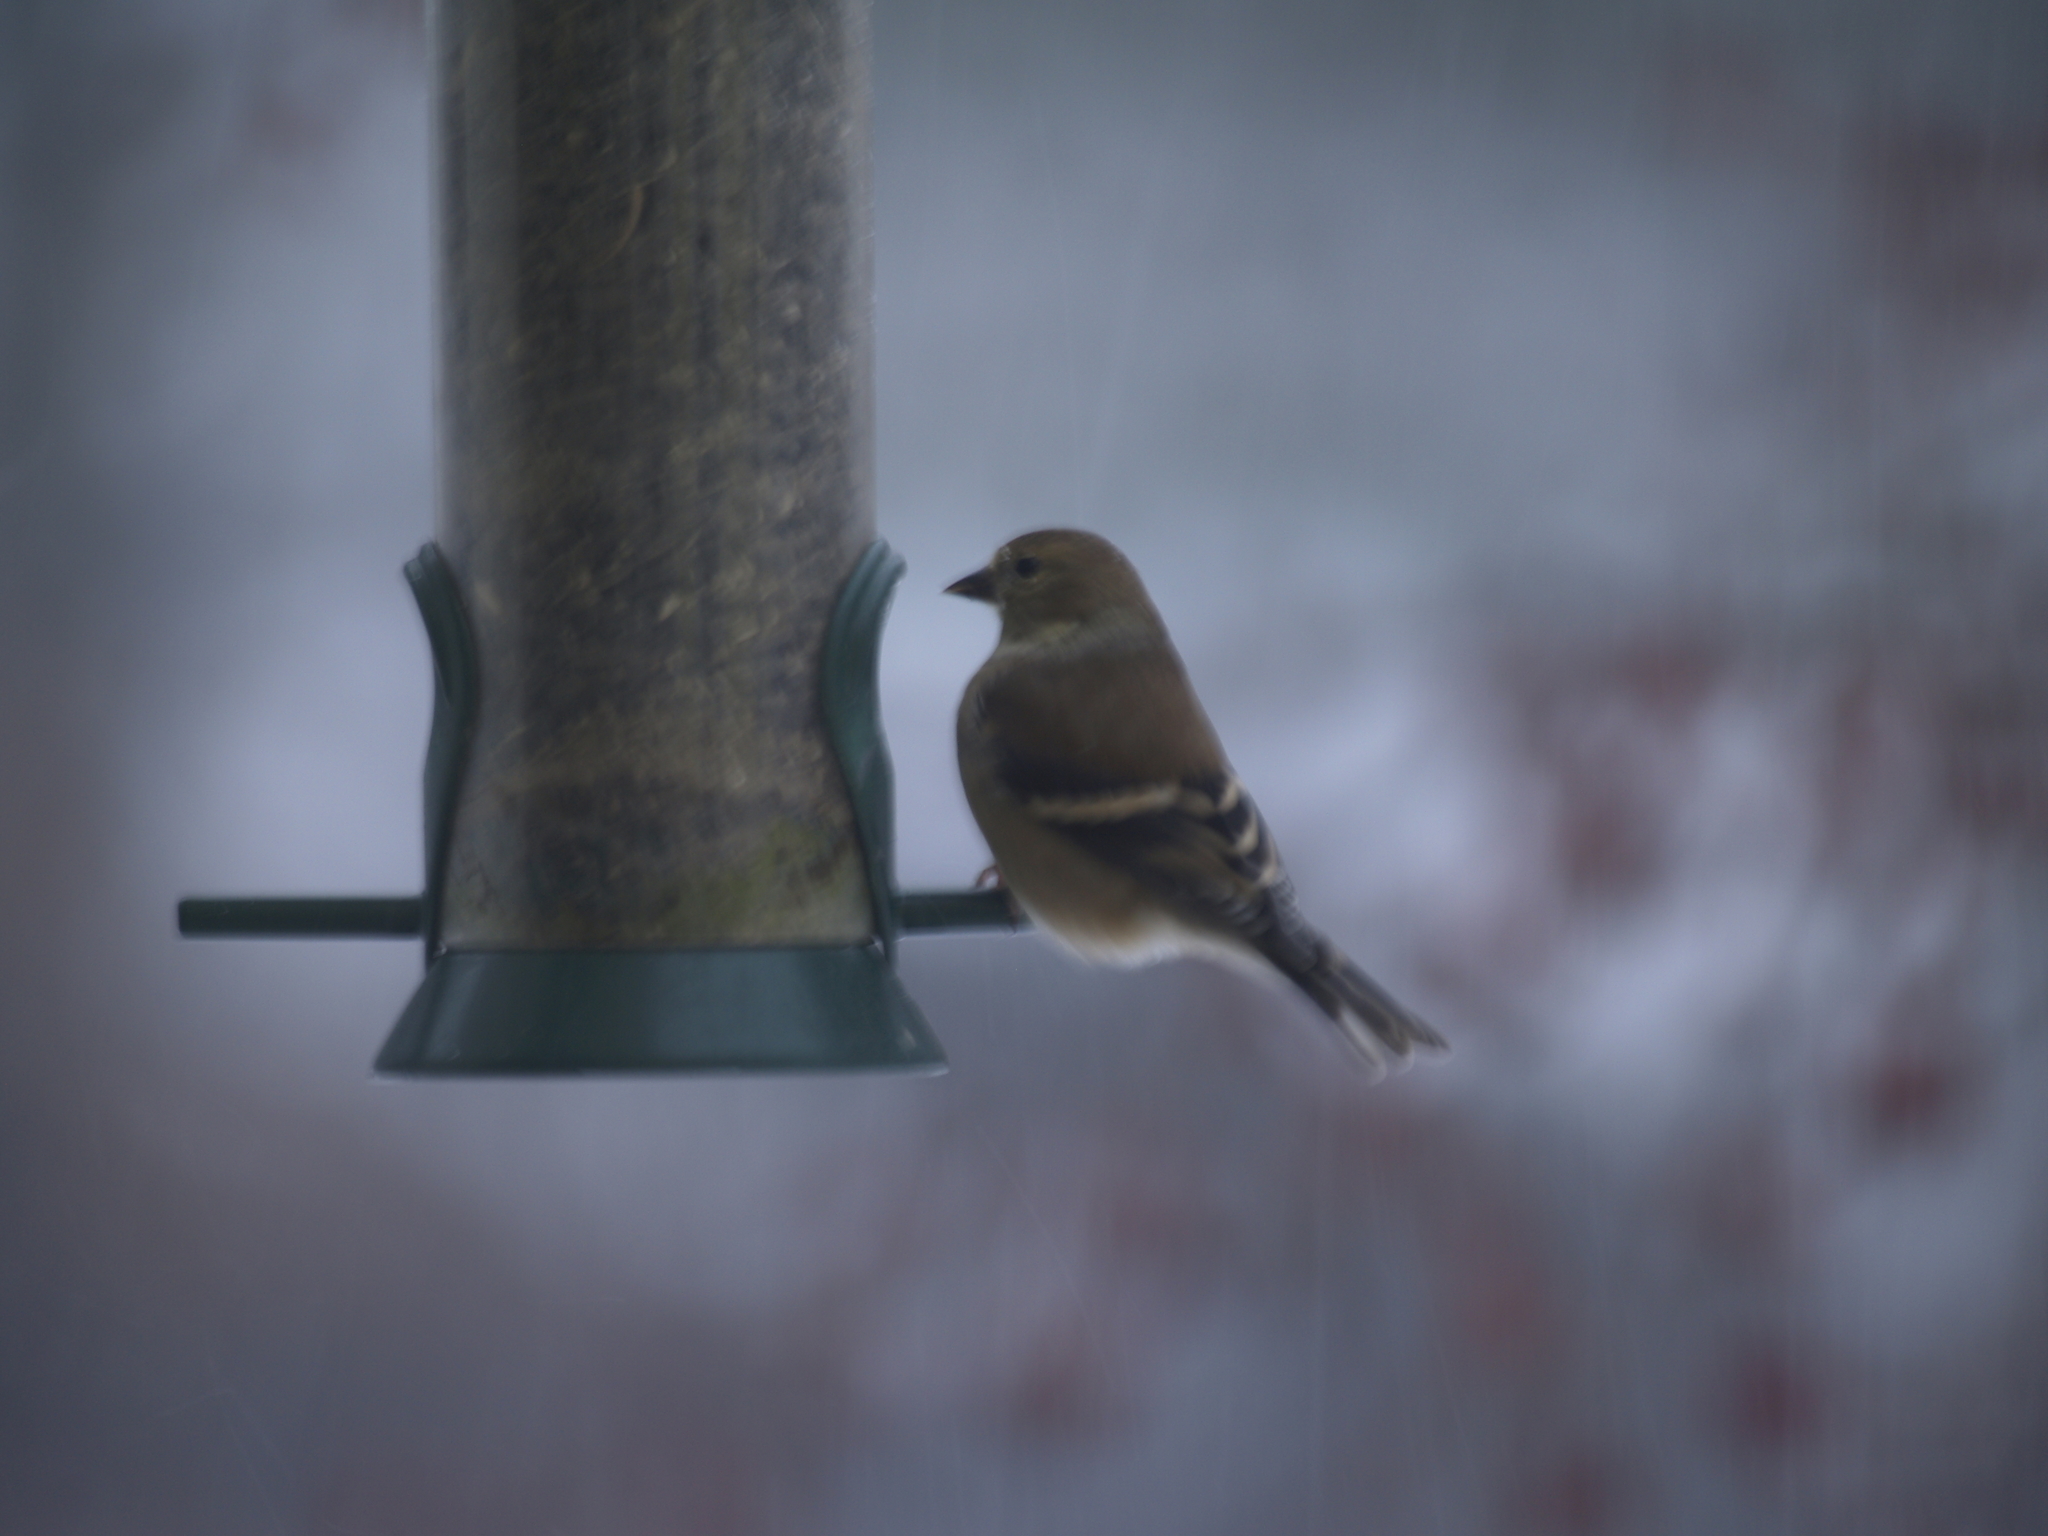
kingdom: Animalia
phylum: Chordata
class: Aves
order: Passeriformes
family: Fringillidae
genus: Spinus
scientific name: Spinus tristis
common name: American goldfinch
